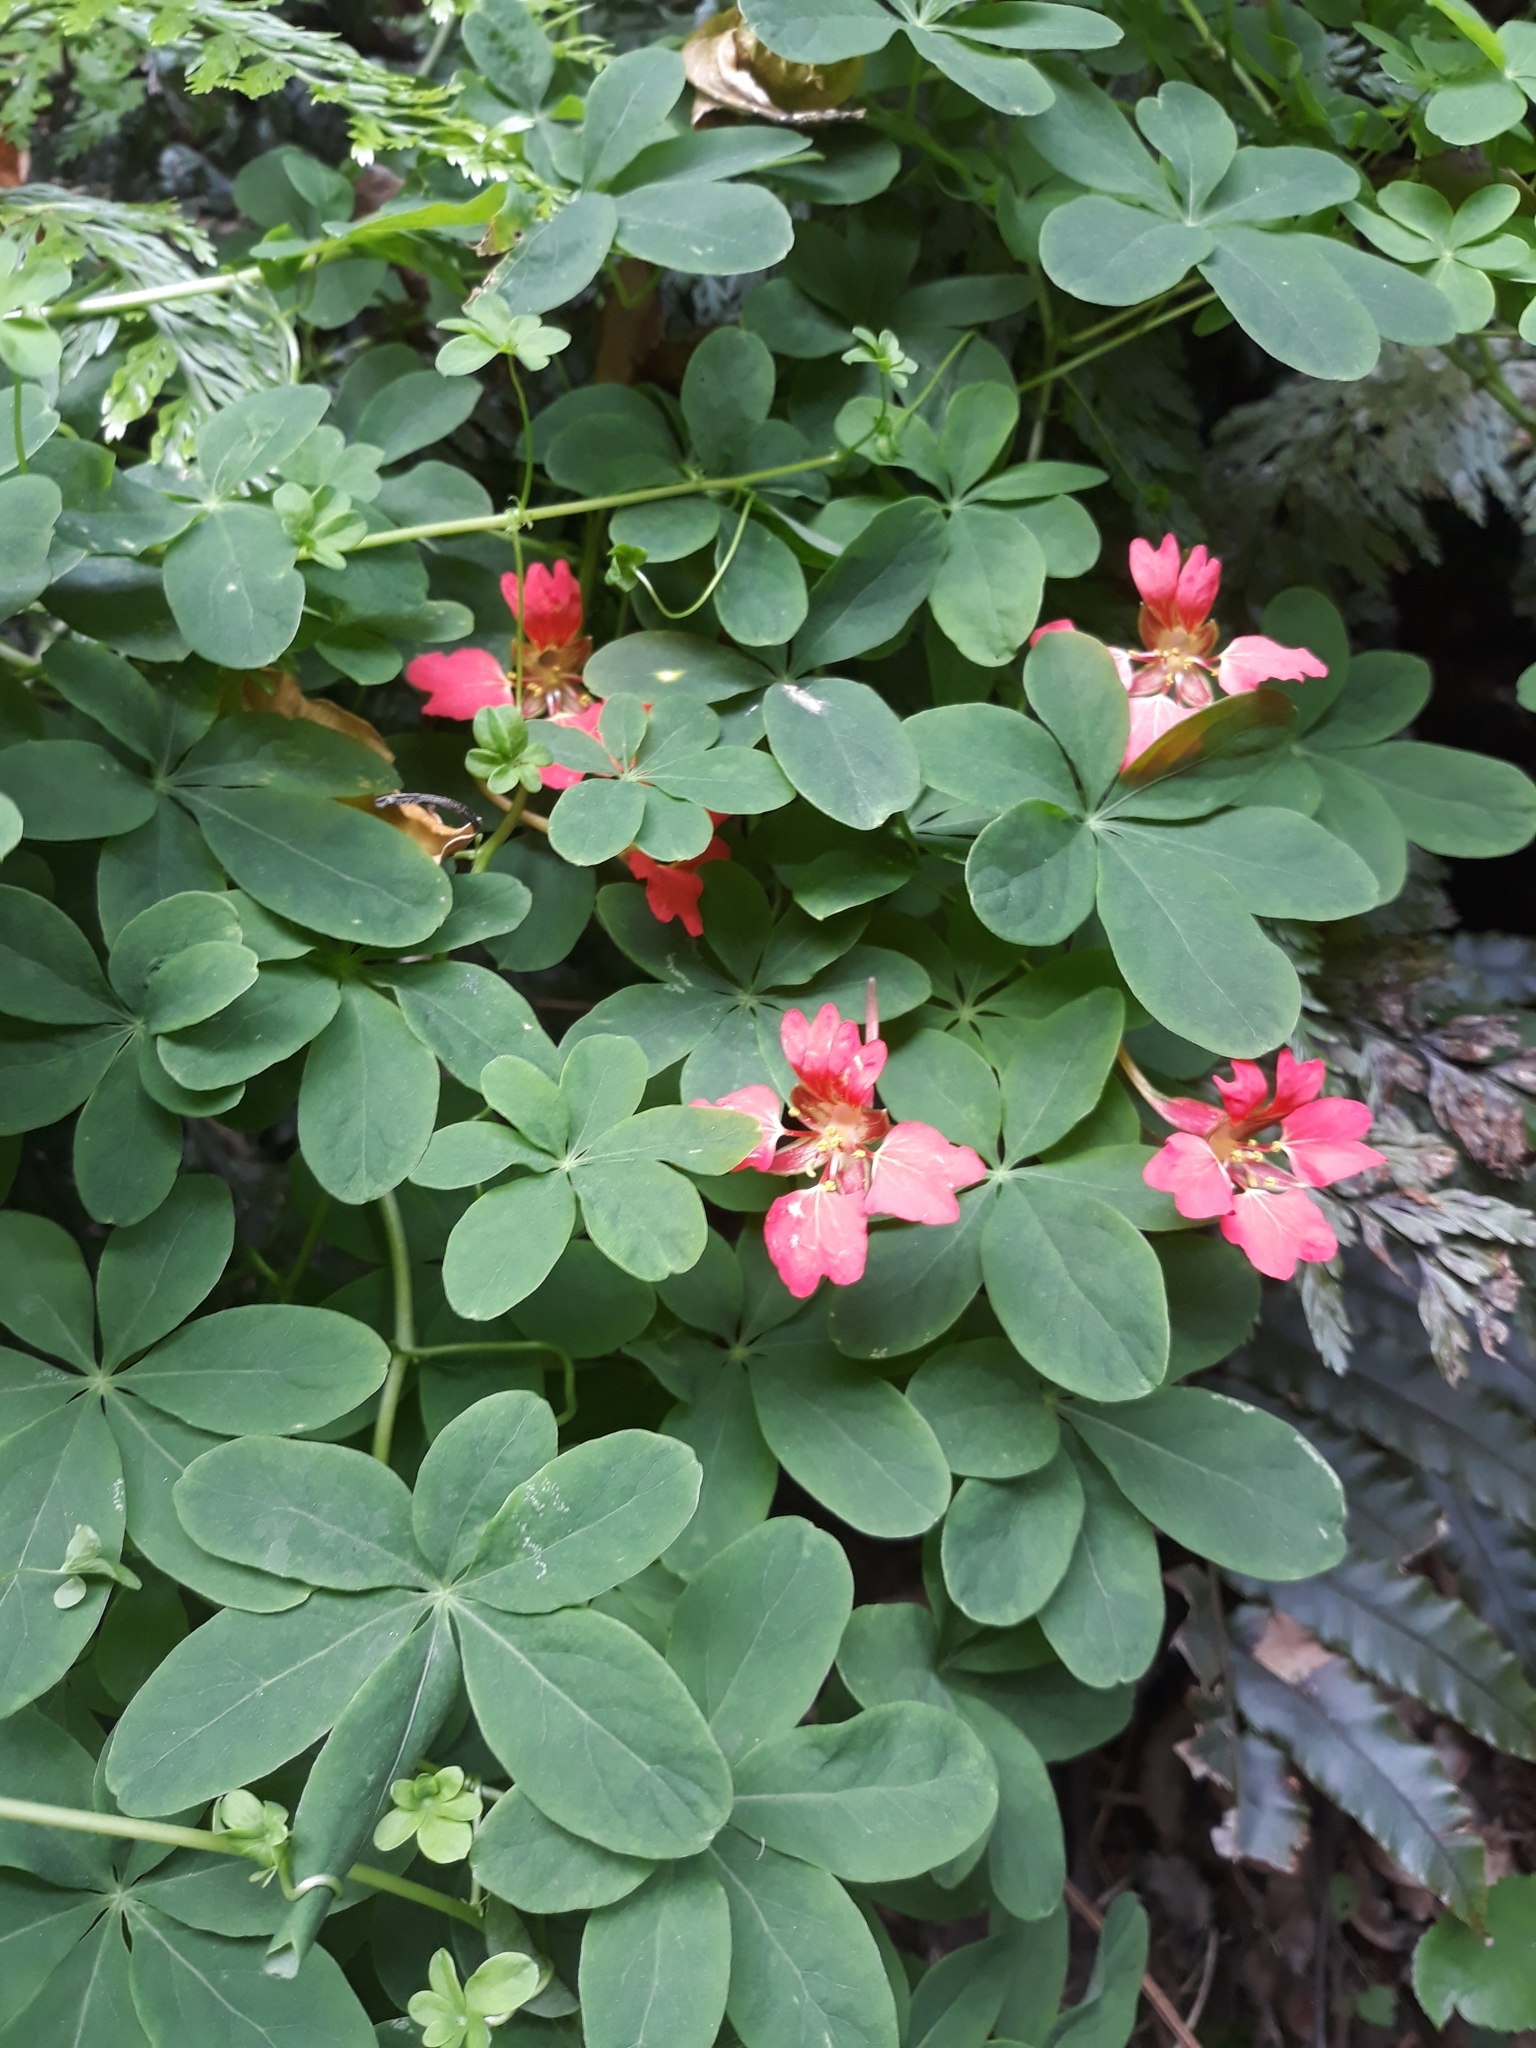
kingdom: Plantae
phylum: Tracheophyta
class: Magnoliopsida
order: Brassicales
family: Tropaeolaceae
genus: Tropaeolum
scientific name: Tropaeolum speciosum
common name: Flame nasturtium
